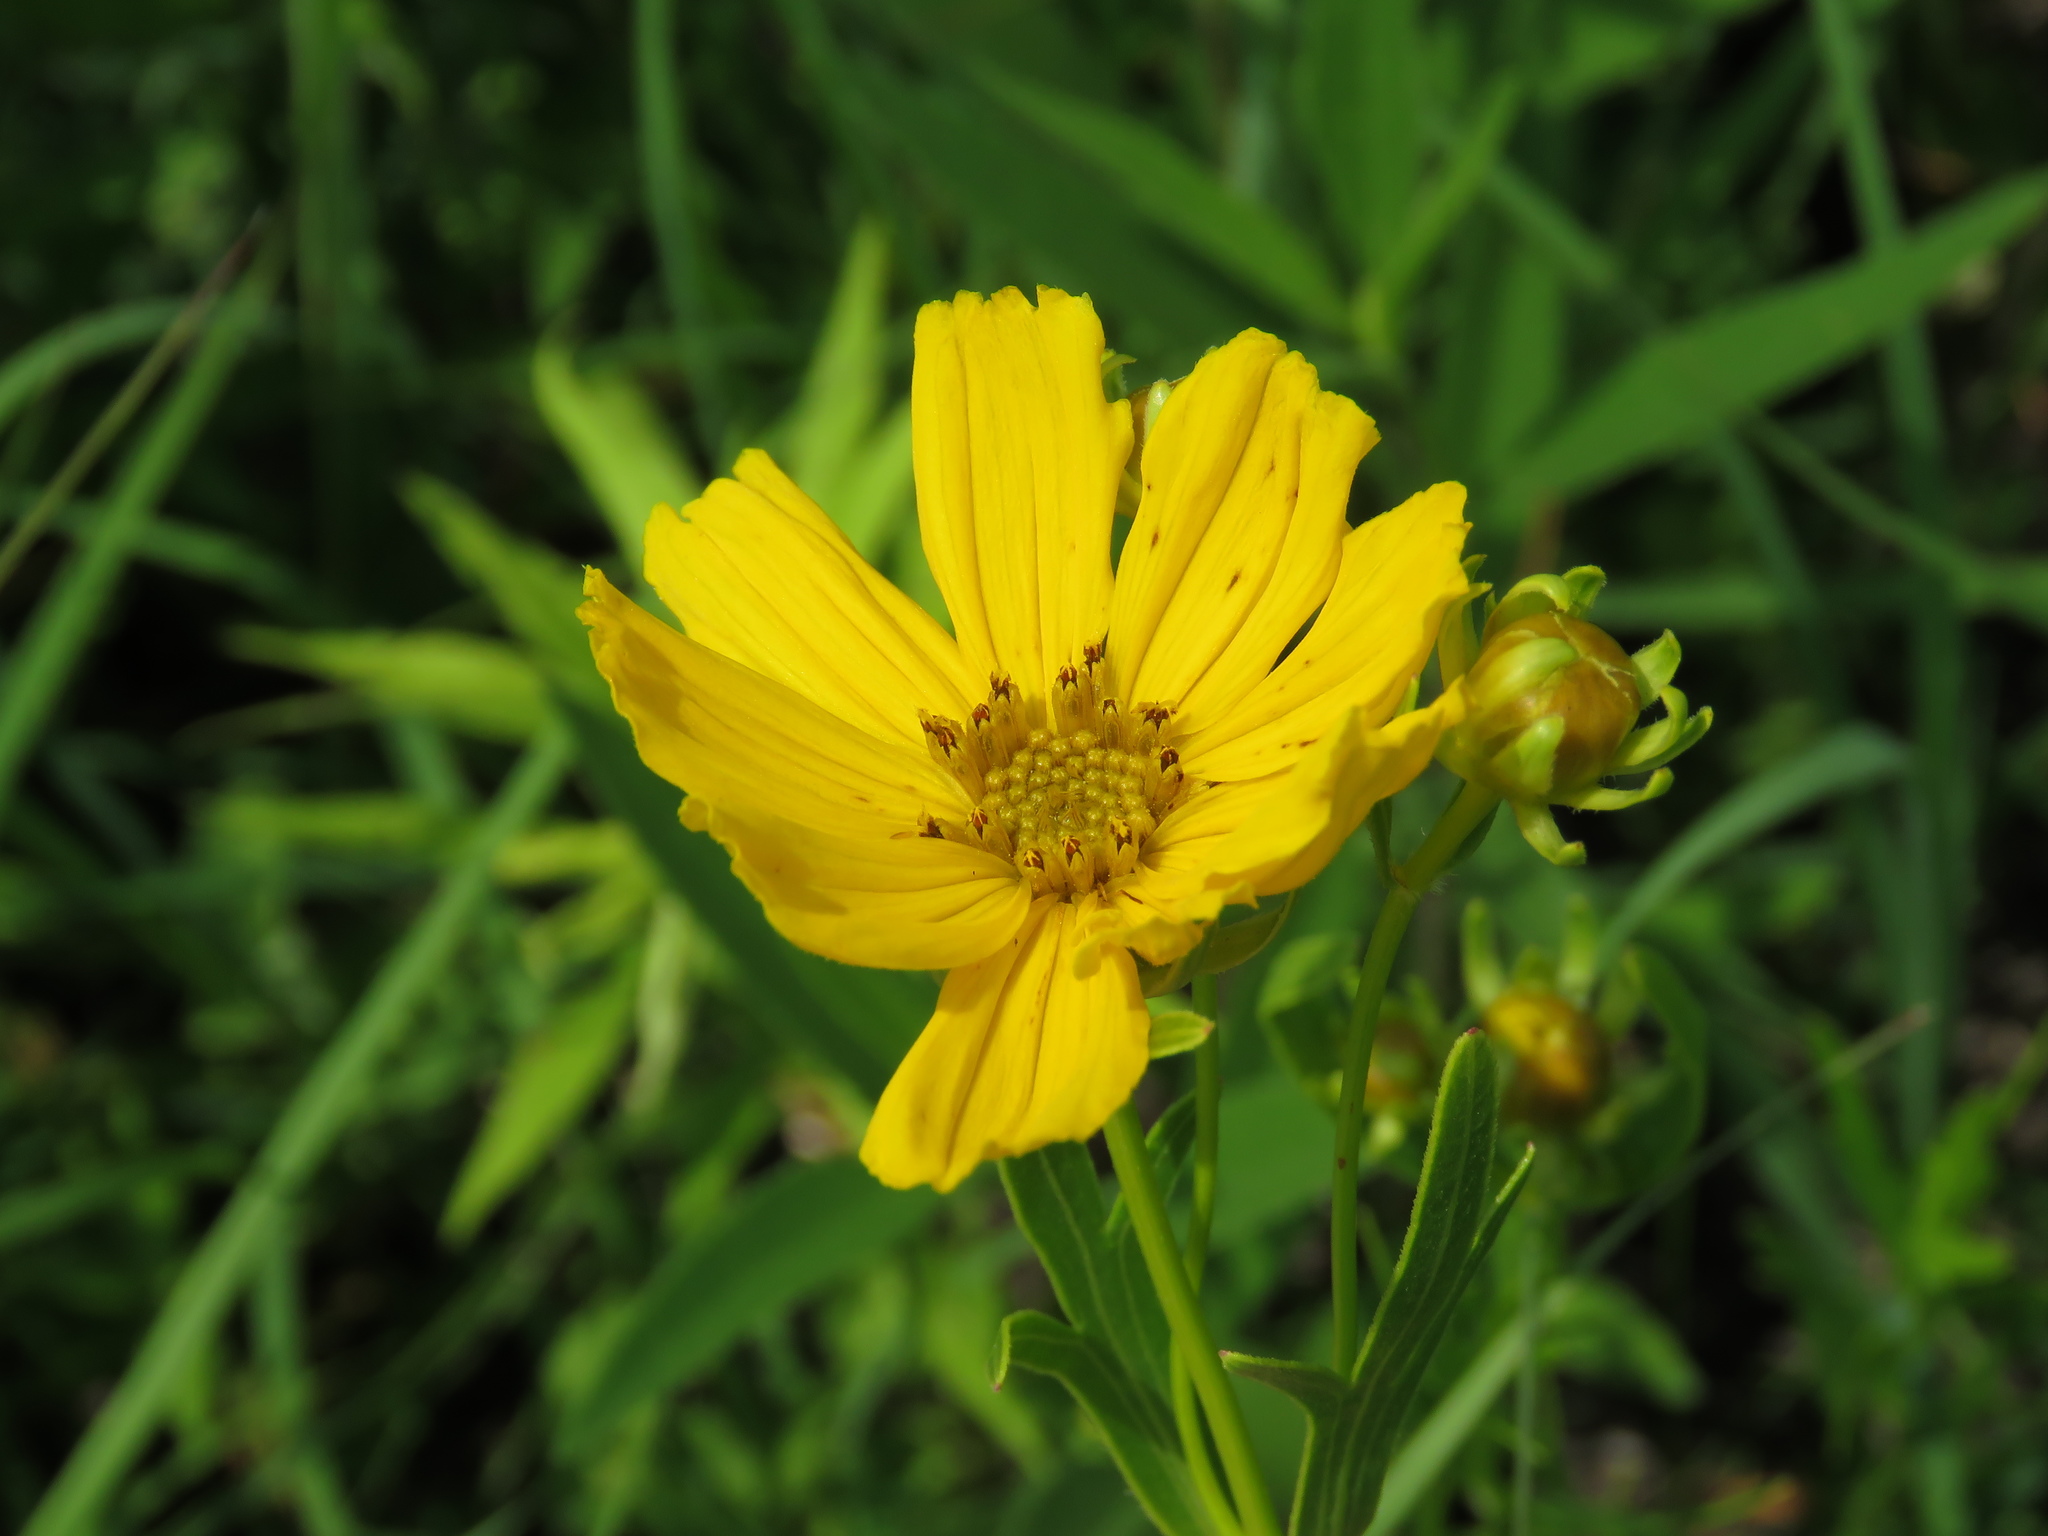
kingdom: Plantae
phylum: Tracheophyta
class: Magnoliopsida
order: Asterales
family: Asteraceae
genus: Coreopsis
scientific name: Coreopsis palmata
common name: Prairie coreopsis
